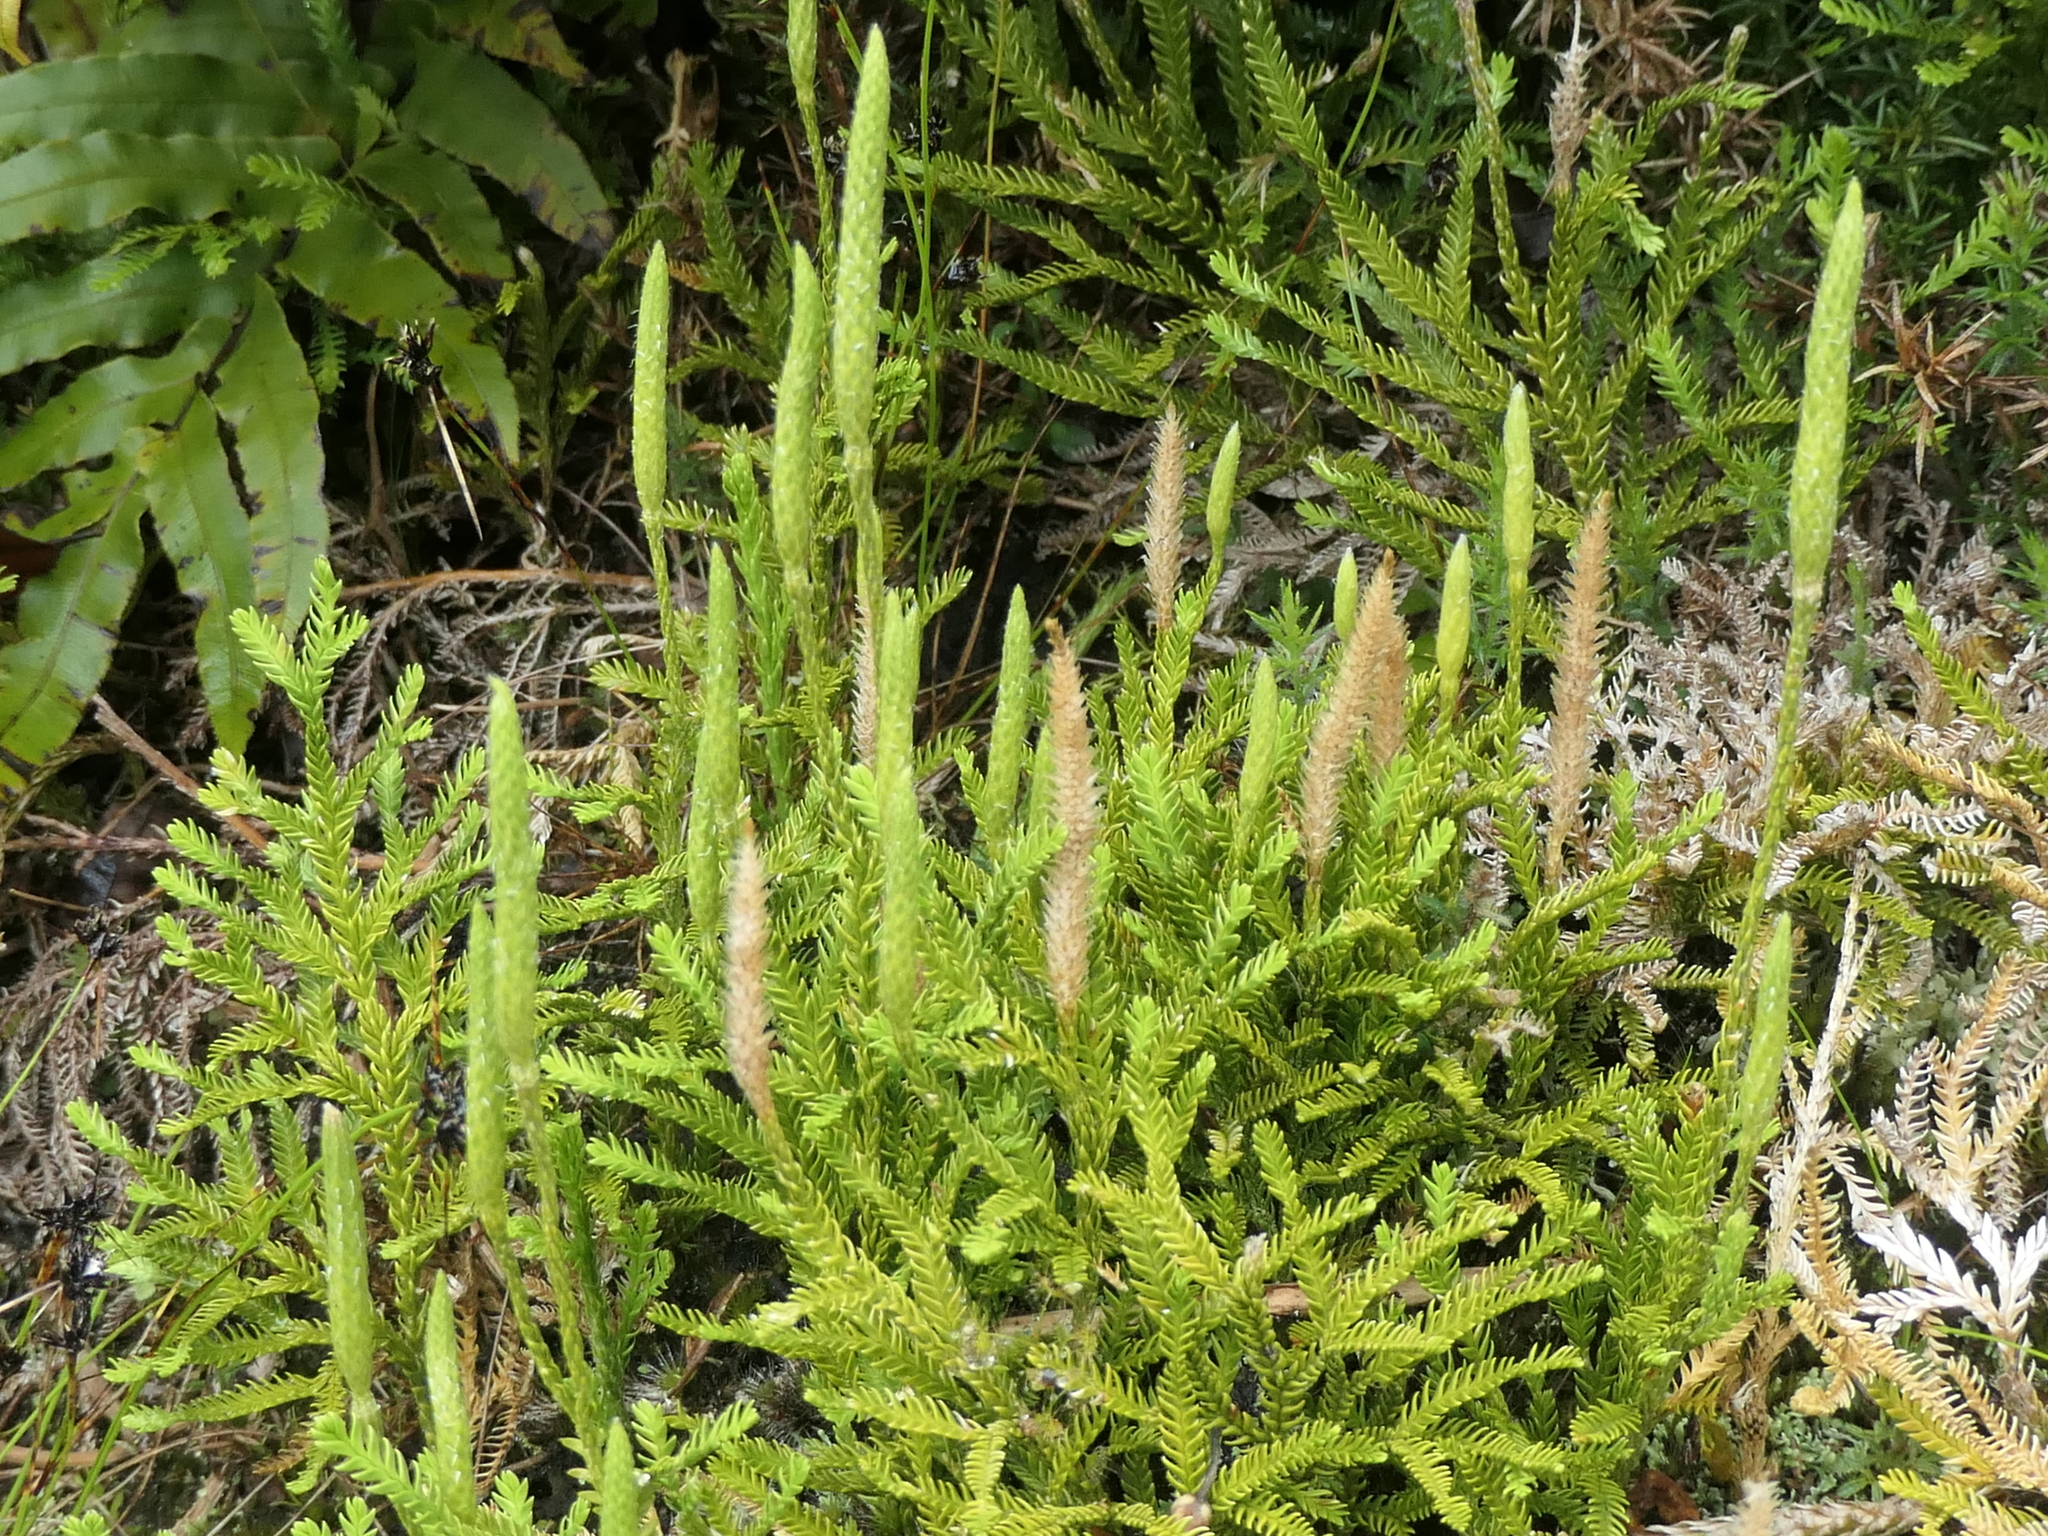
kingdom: Plantae
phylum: Tracheophyta
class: Lycopodiopsida
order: Lycopodiales
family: Lycopodiaceae
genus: Diphasium
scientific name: Diphasium scariosum
